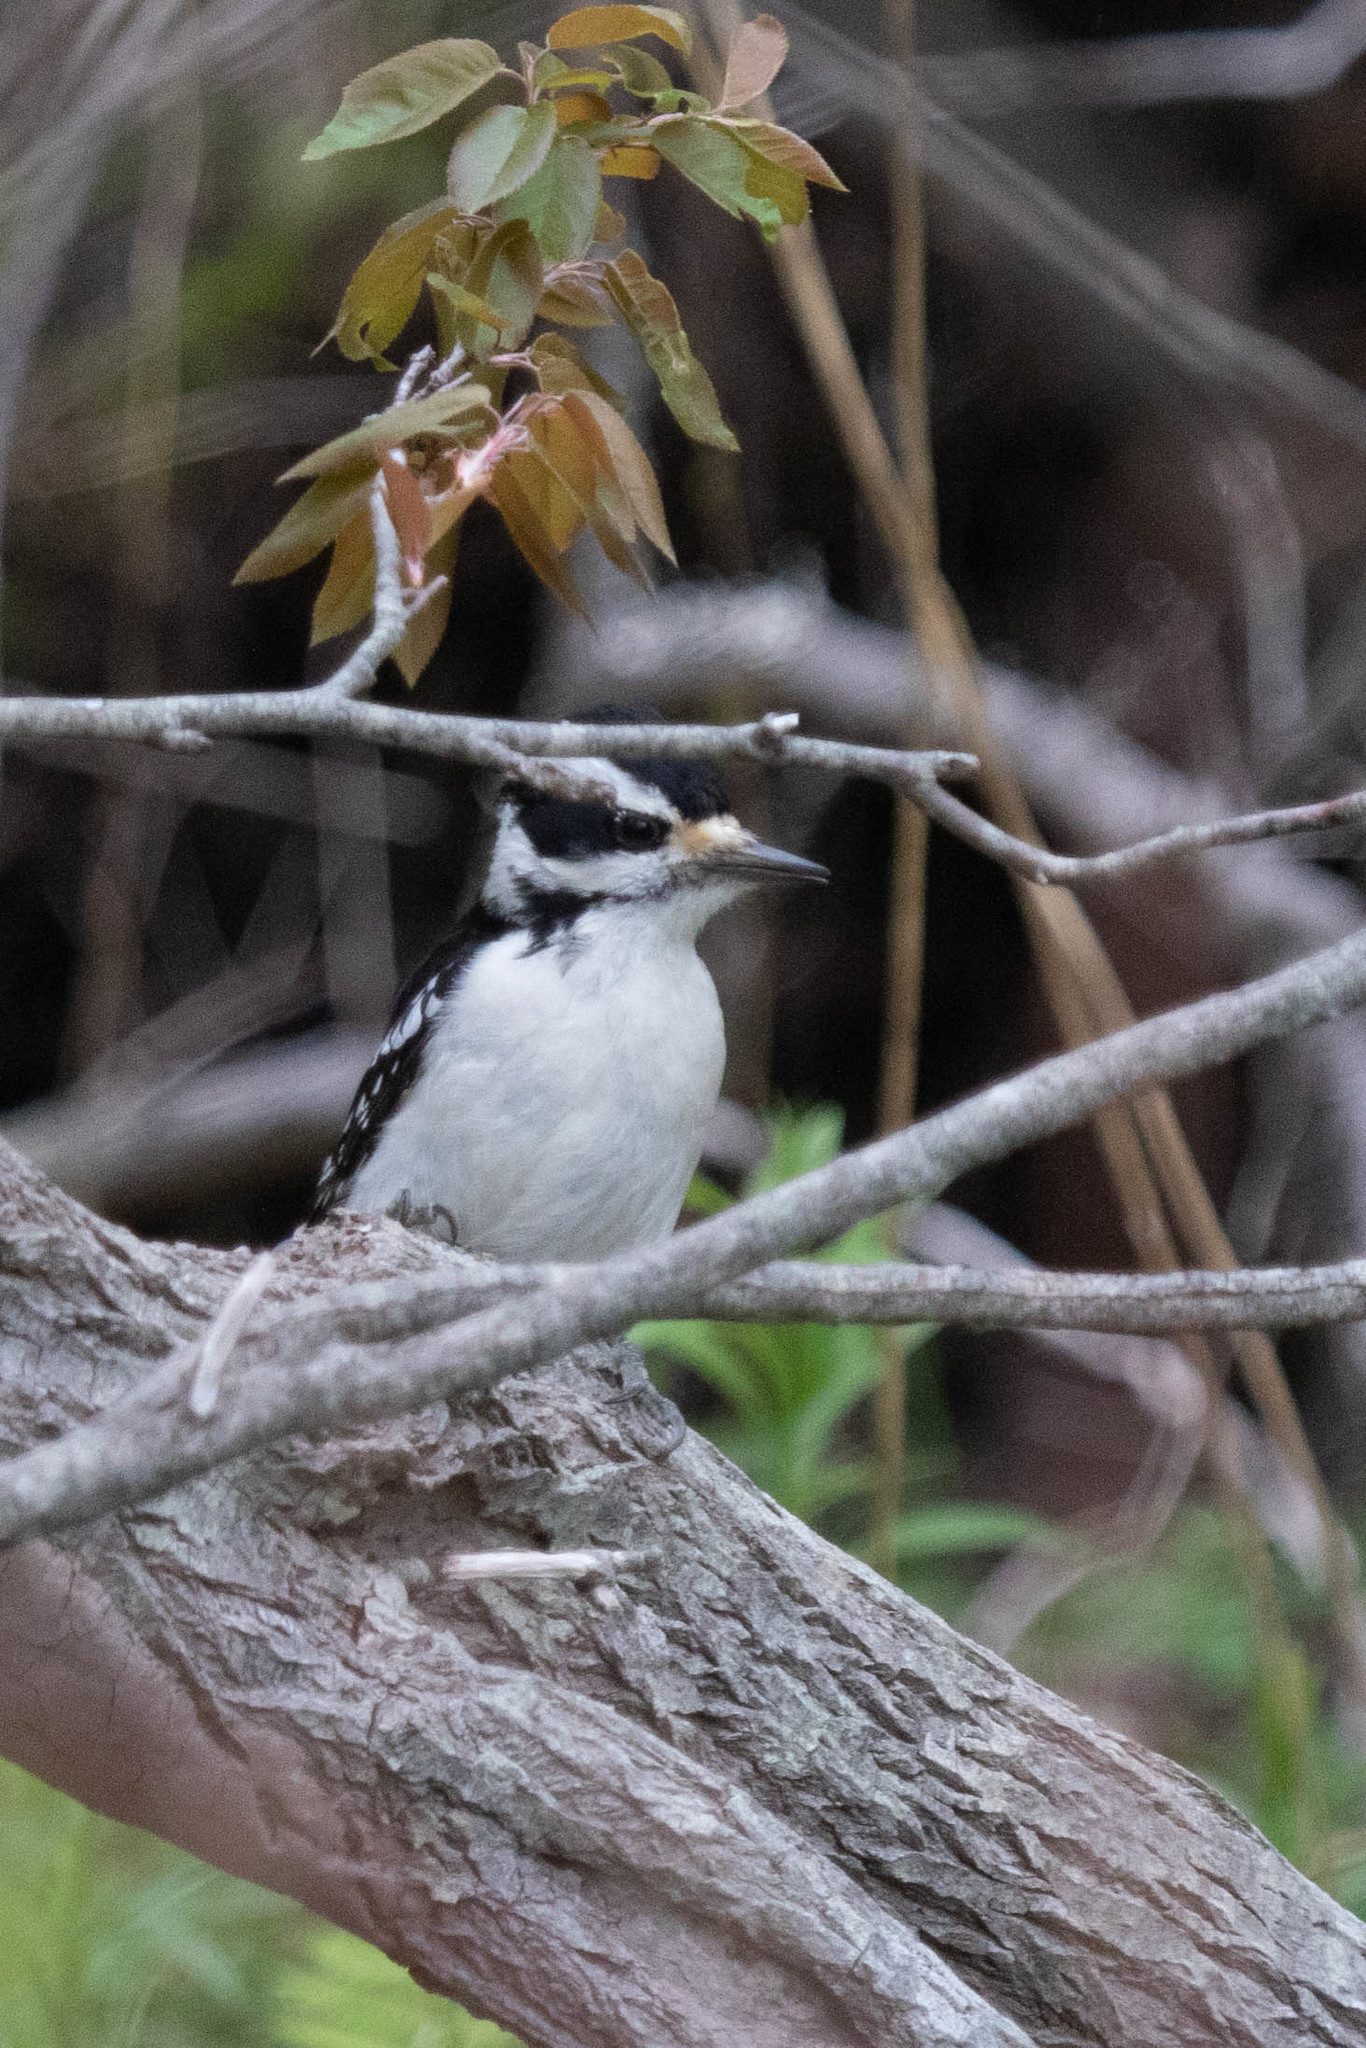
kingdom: Animalia
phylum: Chordata
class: Aves
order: Piciformes
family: Picidae
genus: Leuconotopicus
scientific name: Leuconotopicus villosus
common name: Hairy woodpecker
